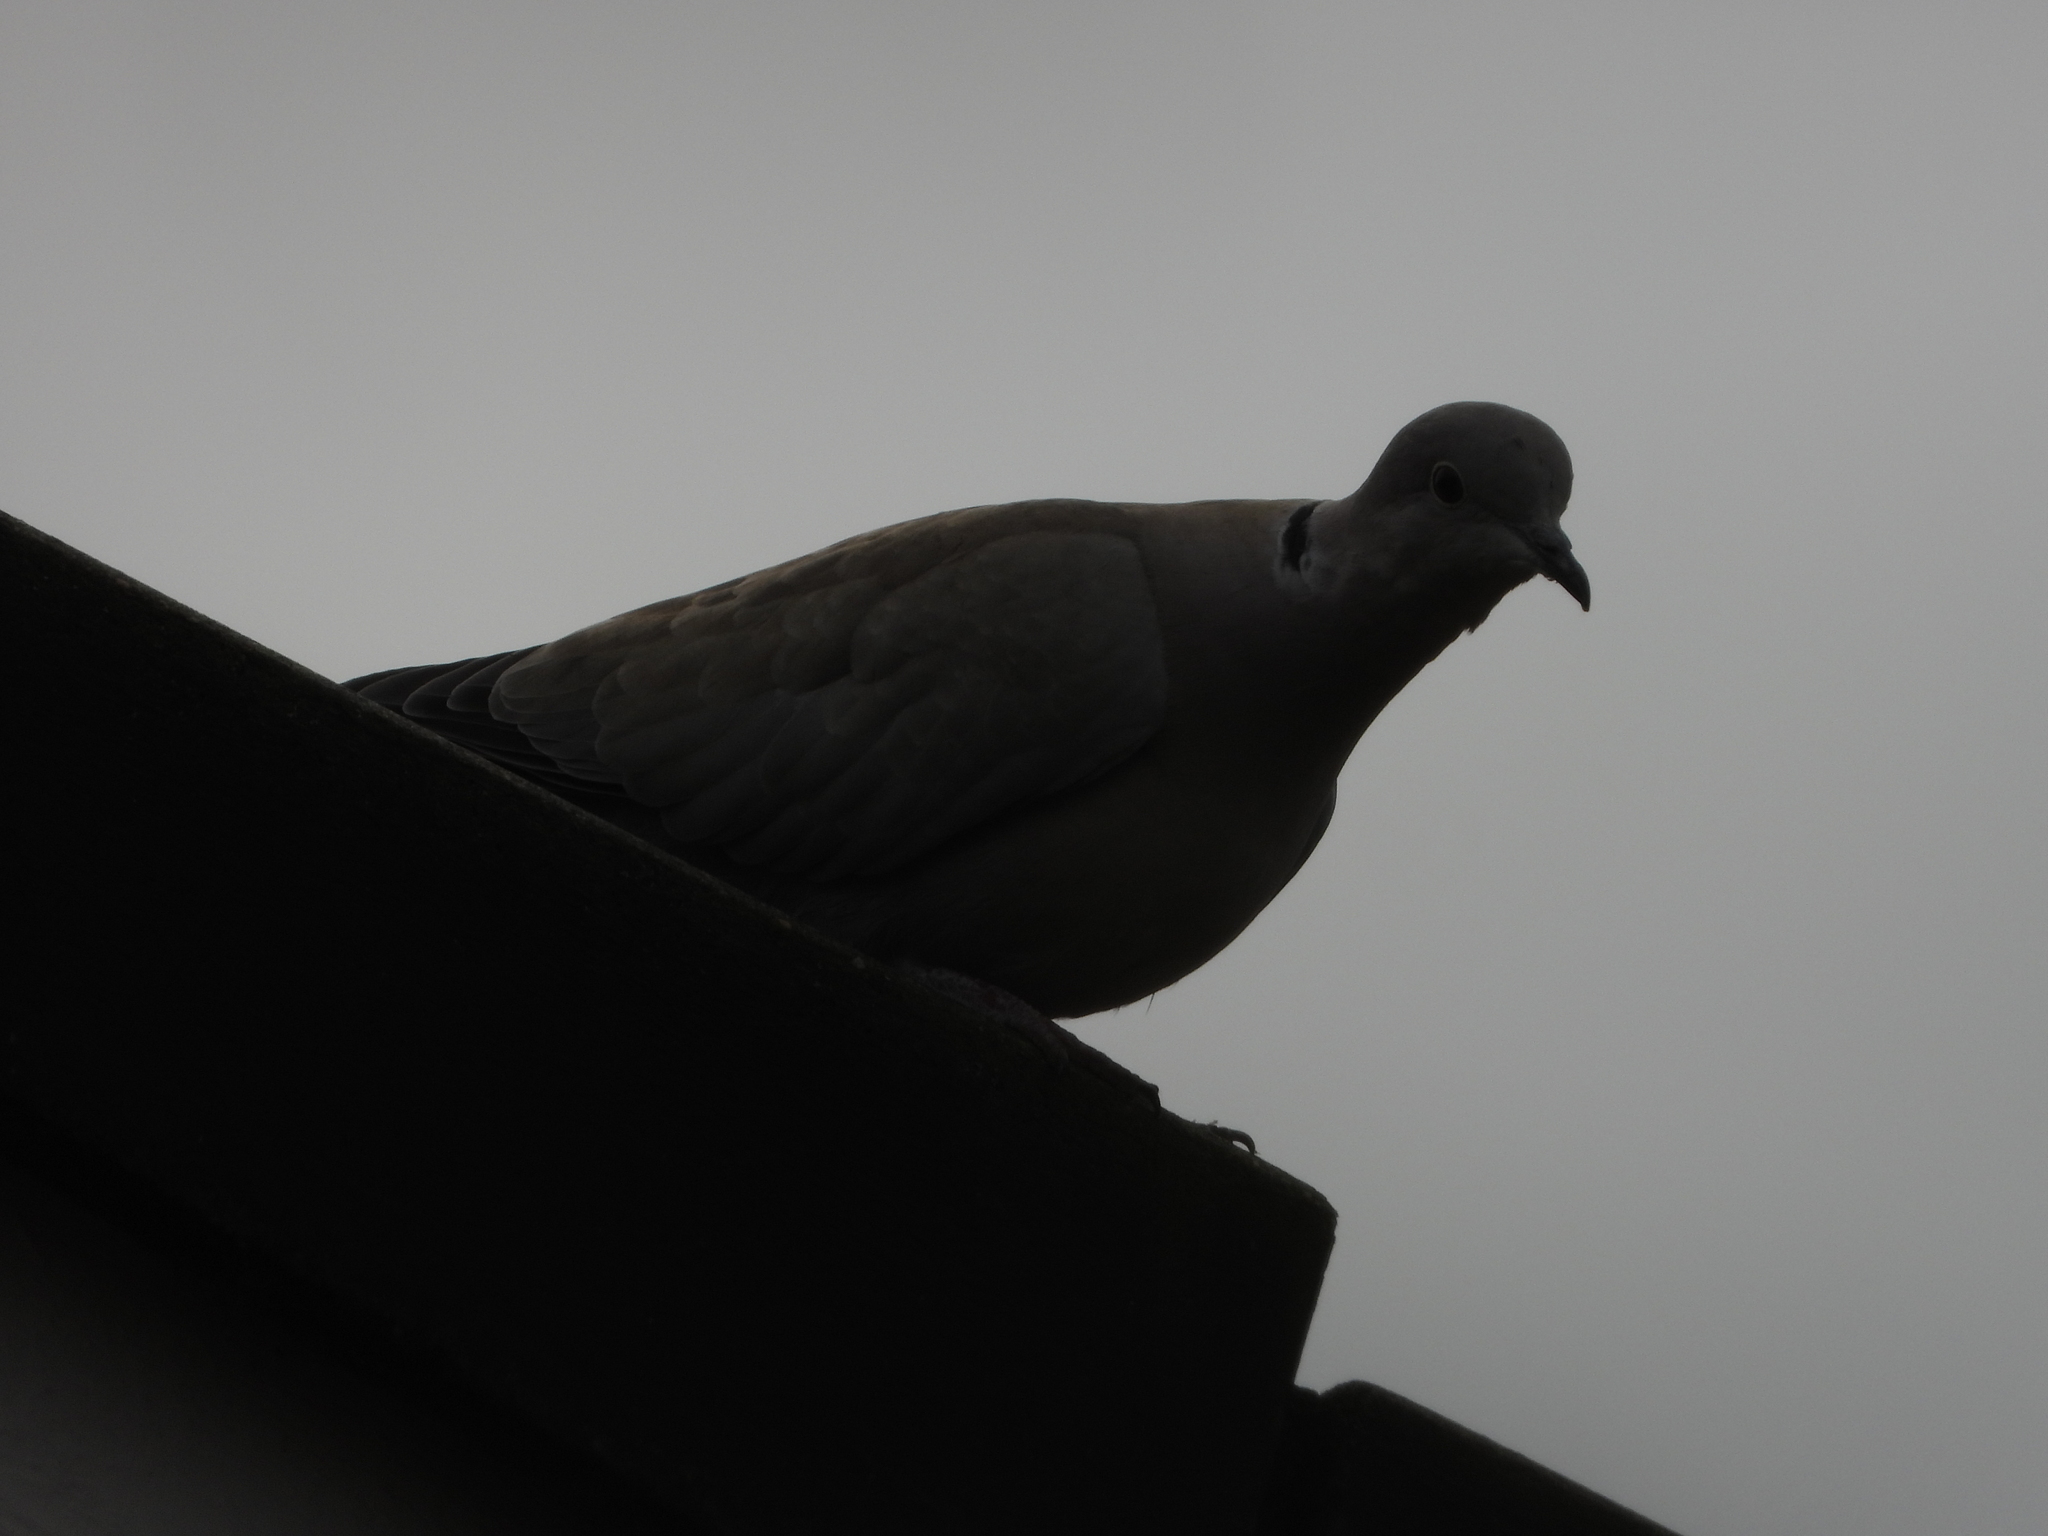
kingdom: Animalia
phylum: Chordata
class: Aves
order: Columbiformes
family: Columbidae
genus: Streptopelia
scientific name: Streptopelia decaocto
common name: Eurasian collared dove
